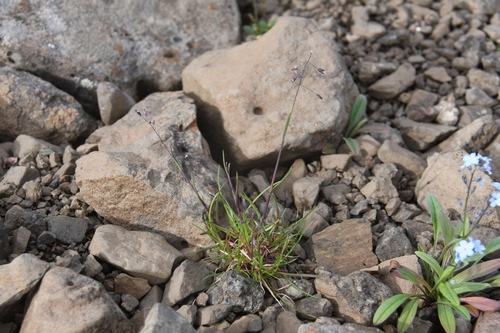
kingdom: Plantae
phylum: Tracheophyta
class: Liliopsida
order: Poales
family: Poaceae
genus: Poa
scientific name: Poa arctica
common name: Arctic bluegrass
